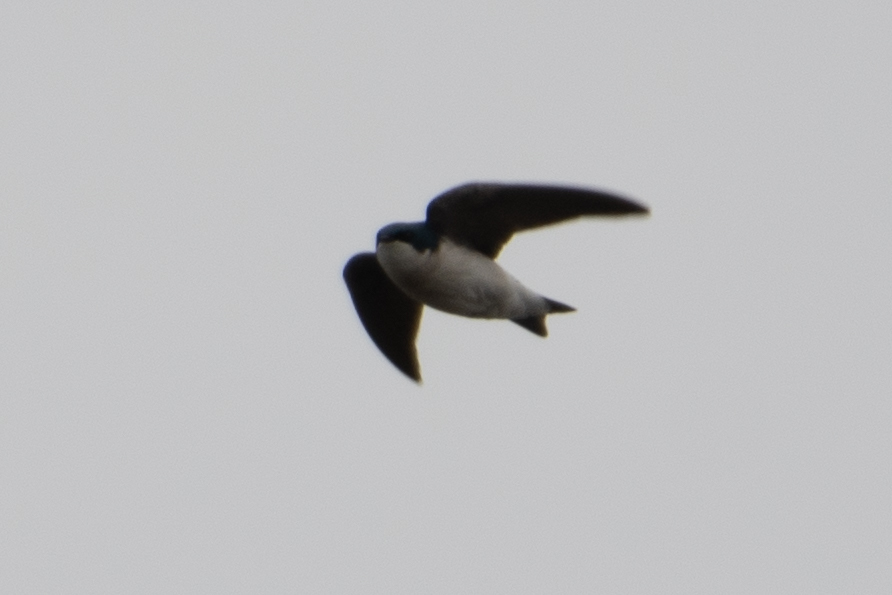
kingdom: Animalia
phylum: Chordata
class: Aves
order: Passeriformes
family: Hirundinidae
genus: Tachycineta
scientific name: Tachycineta bicolor
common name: Tree swallow
